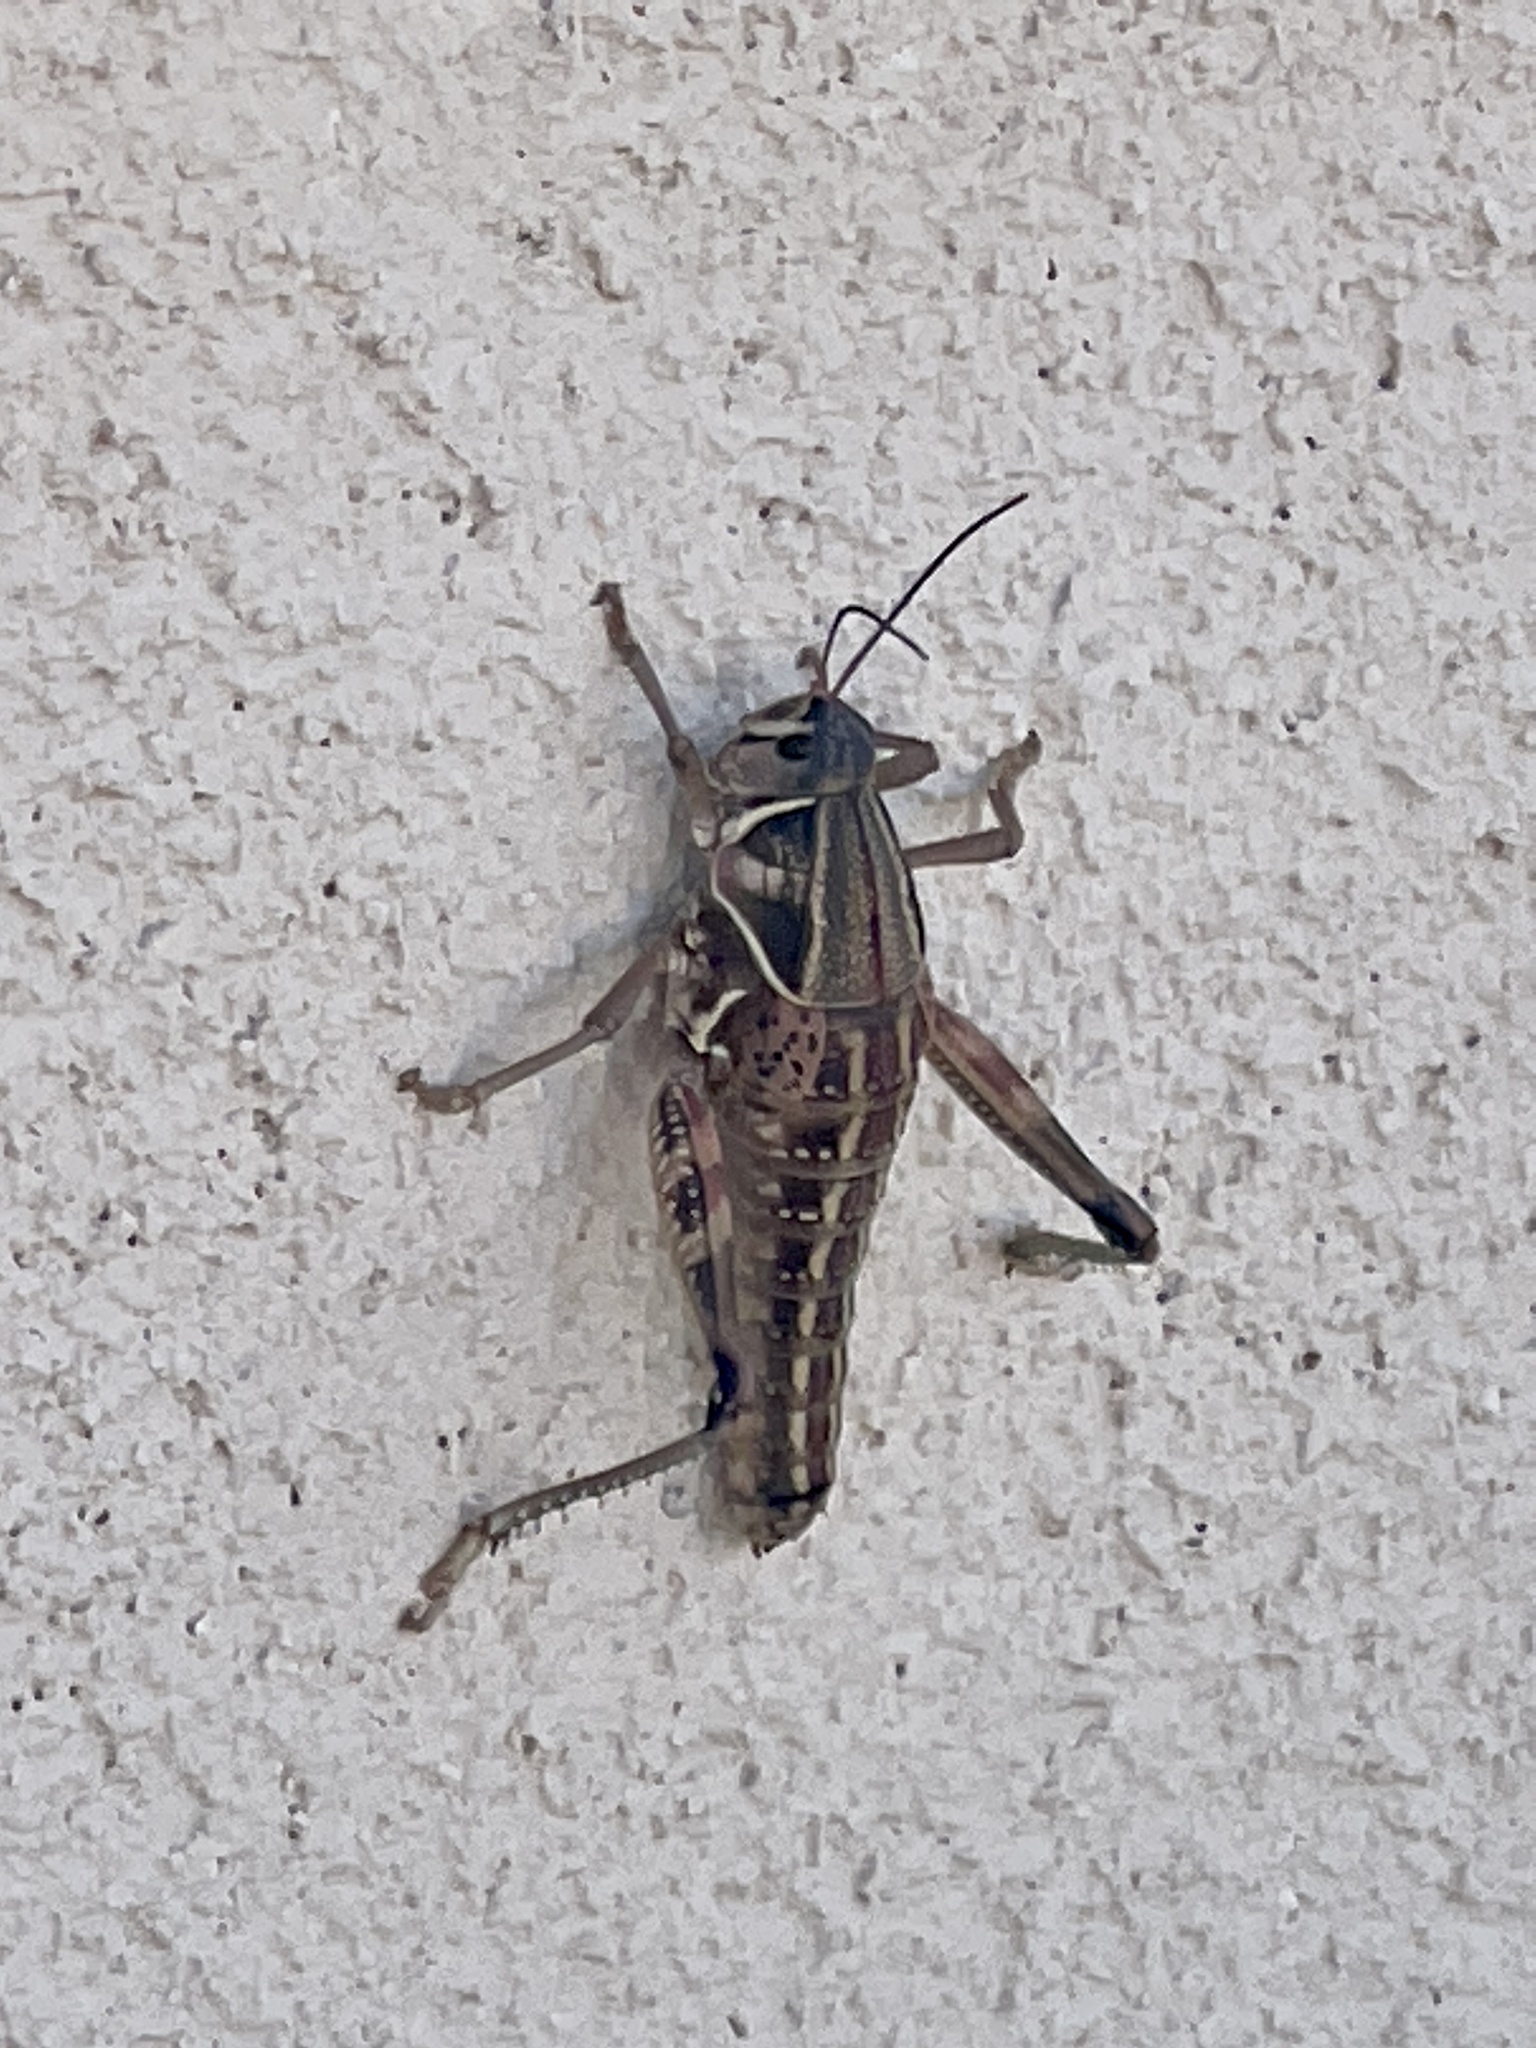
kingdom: Animalia
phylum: Arthropoda
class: Insecta
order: Orthoptera
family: Romaleidae
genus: Brachystola
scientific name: Brachystola magna
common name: Plains lubber grasshopper
